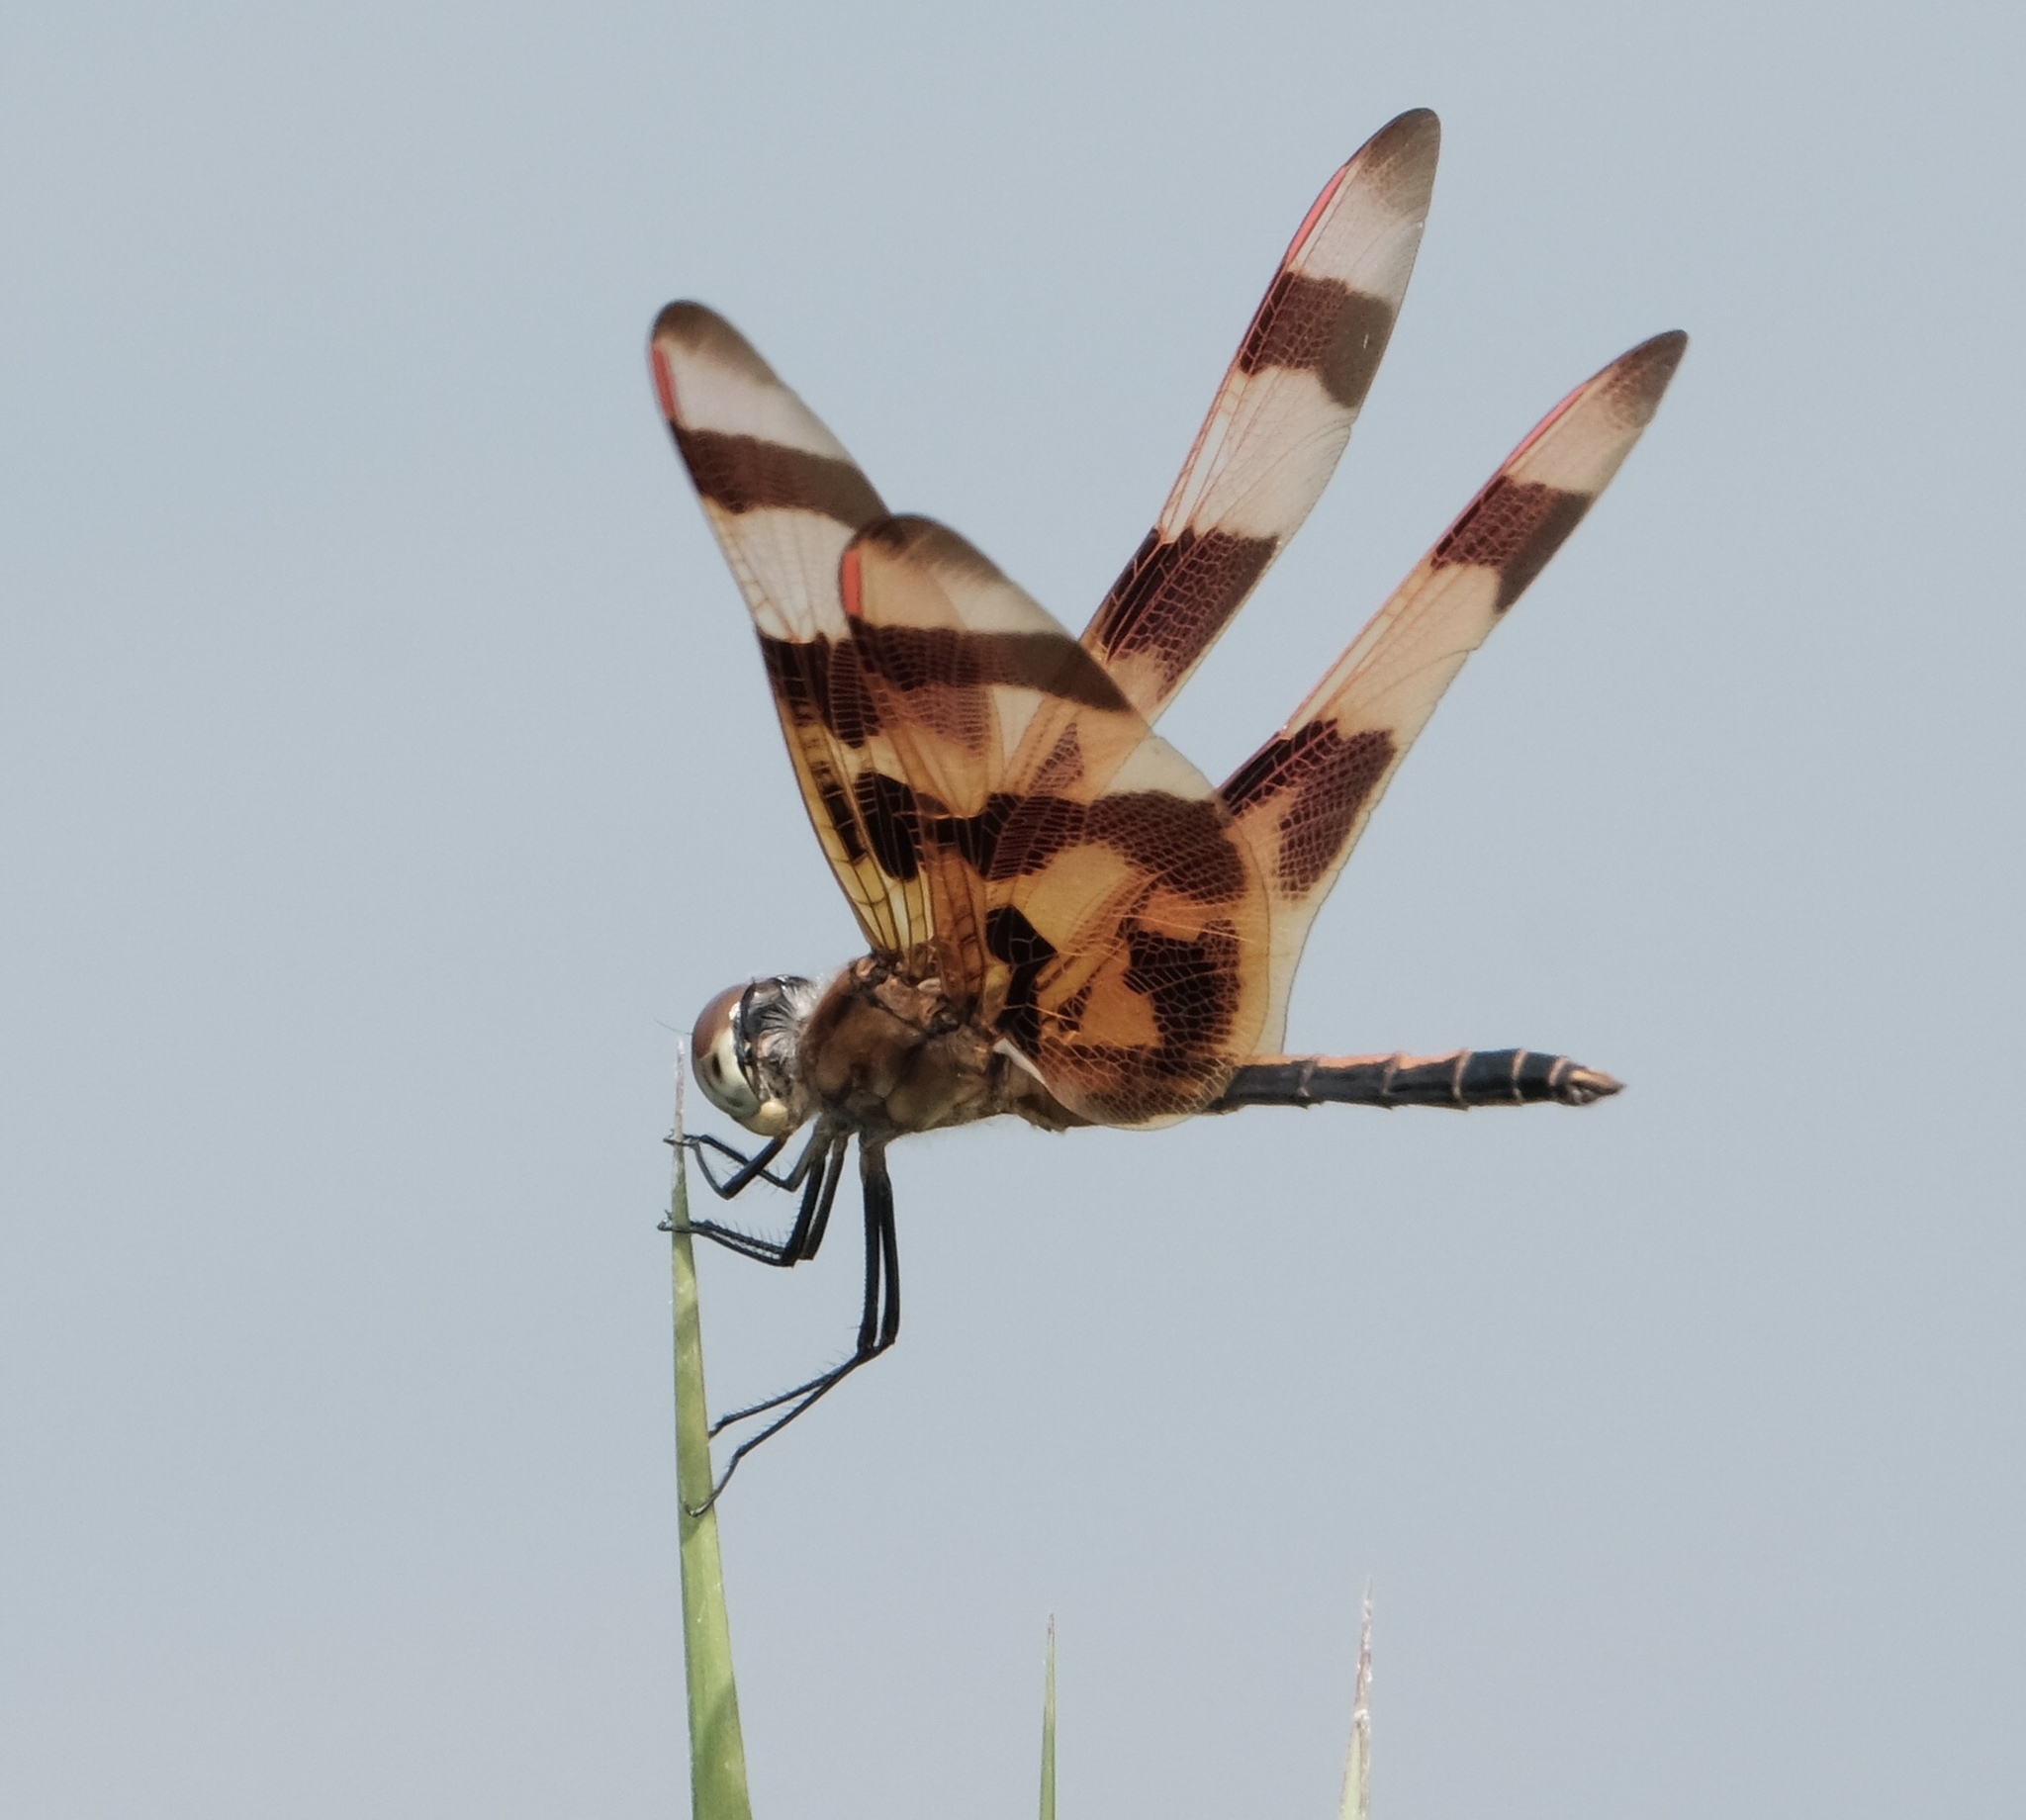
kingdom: Animalia
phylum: Arthropoda
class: Insecta
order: Odonata
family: Libellulidae
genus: Celithemis
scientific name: Celithemis eponina
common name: Halloween pennant
